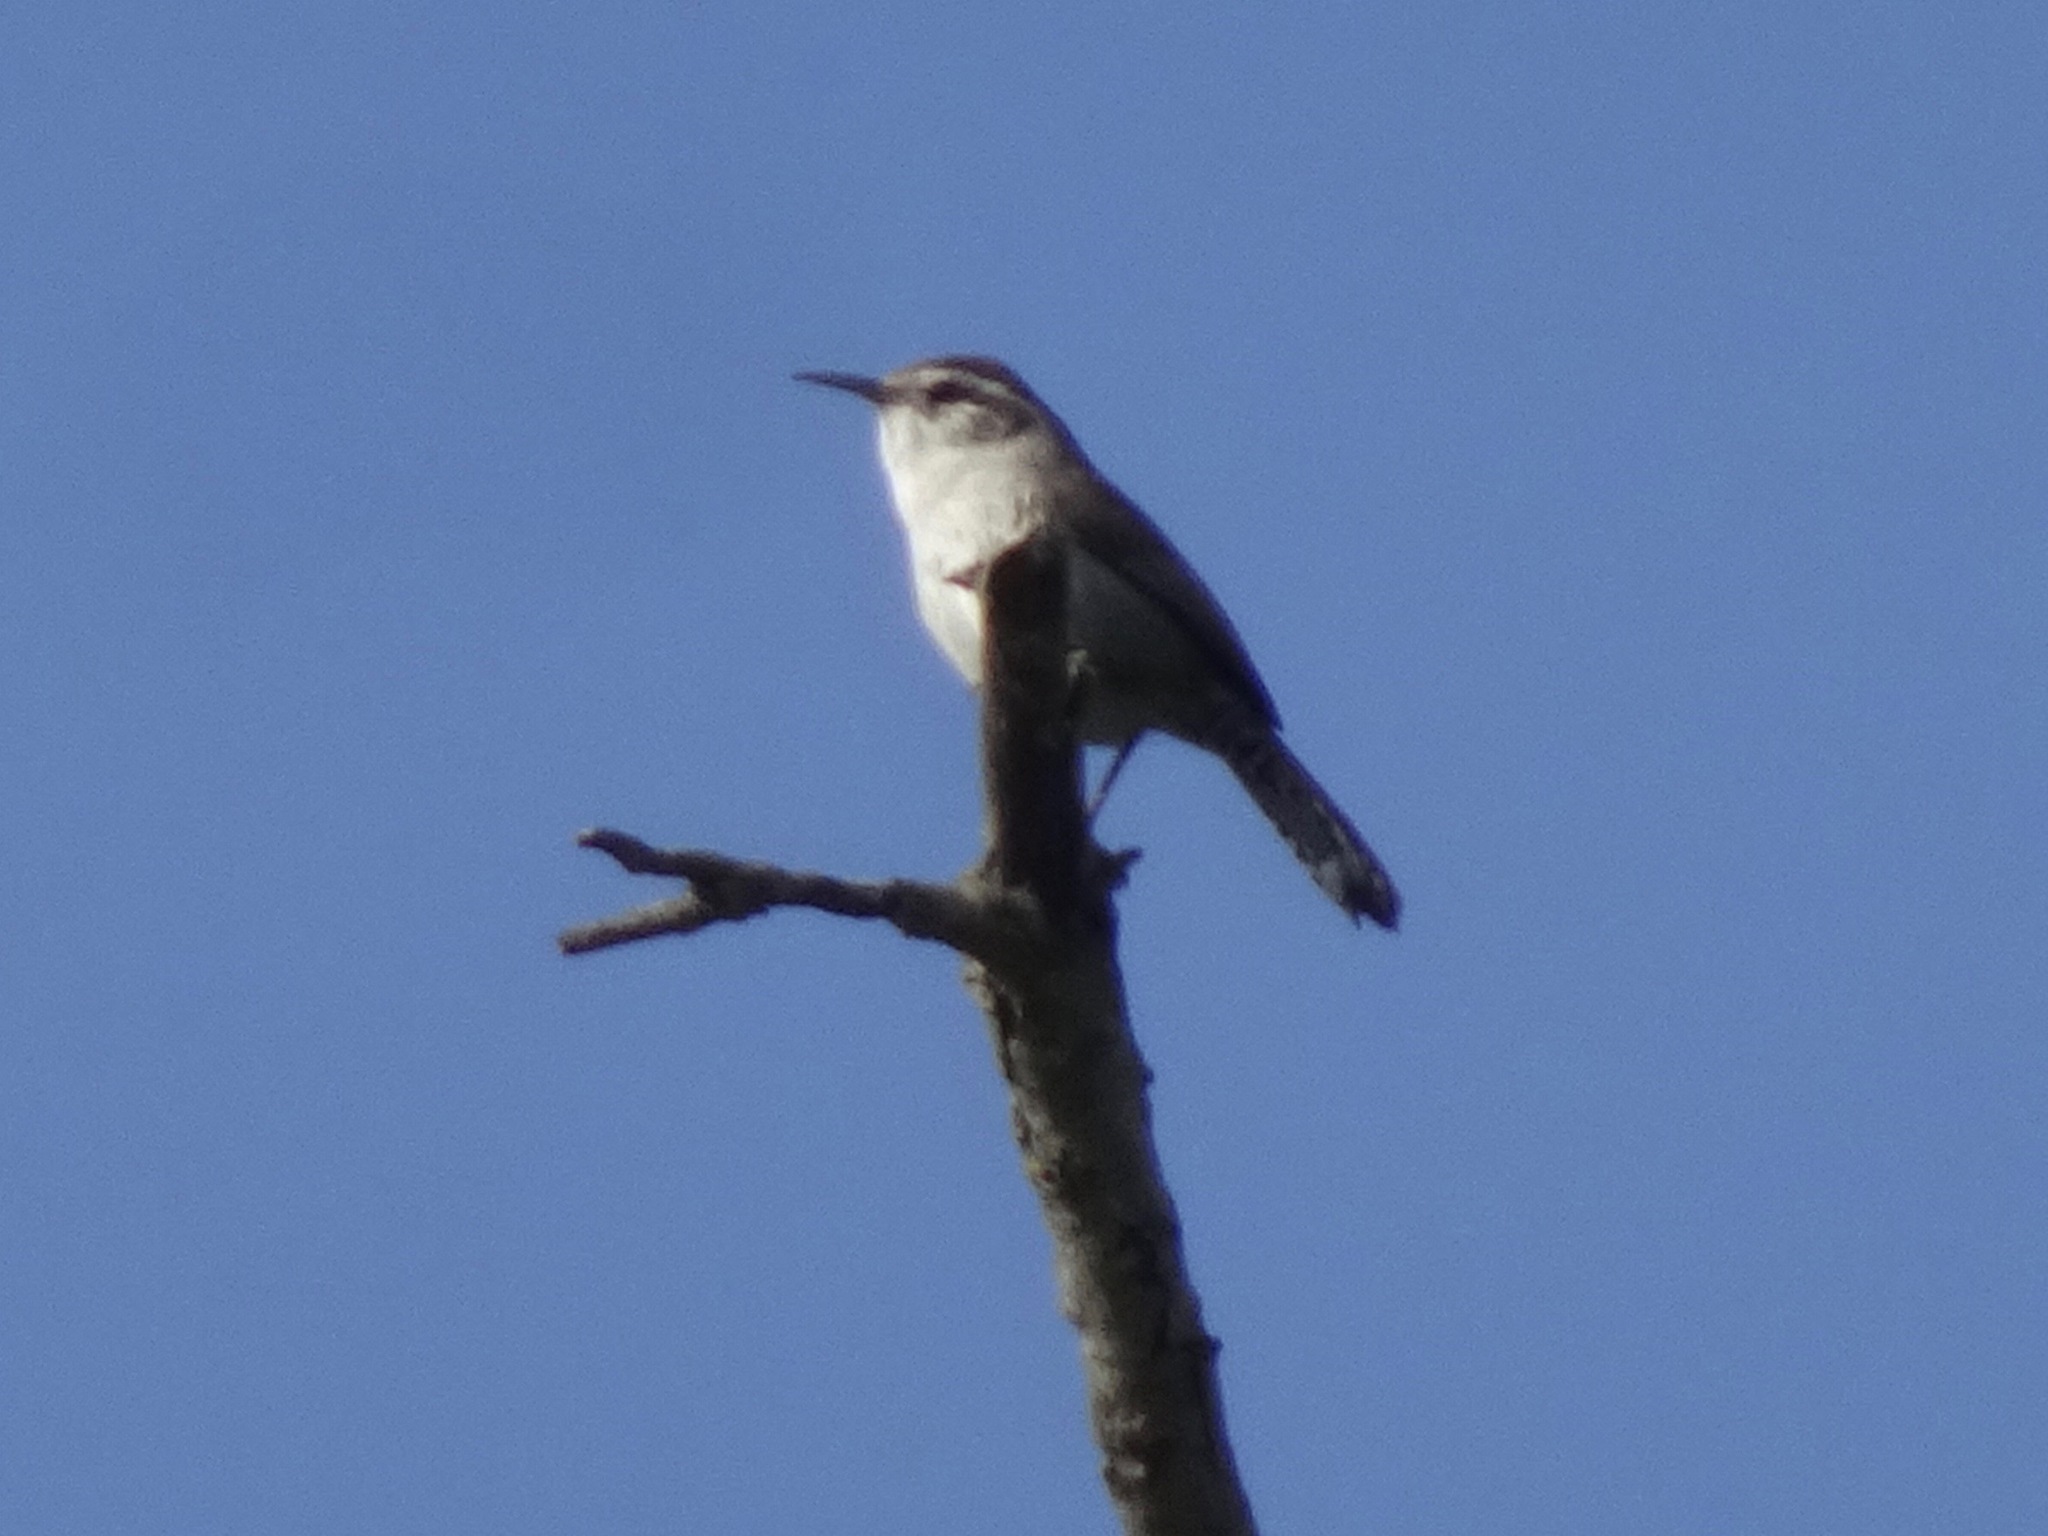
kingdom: Animalia
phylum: Chordata
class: Aves
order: Passeriformes
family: Troglodytidae
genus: Thryomanes
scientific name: Thryomanes bewickii
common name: Bewick's wren
